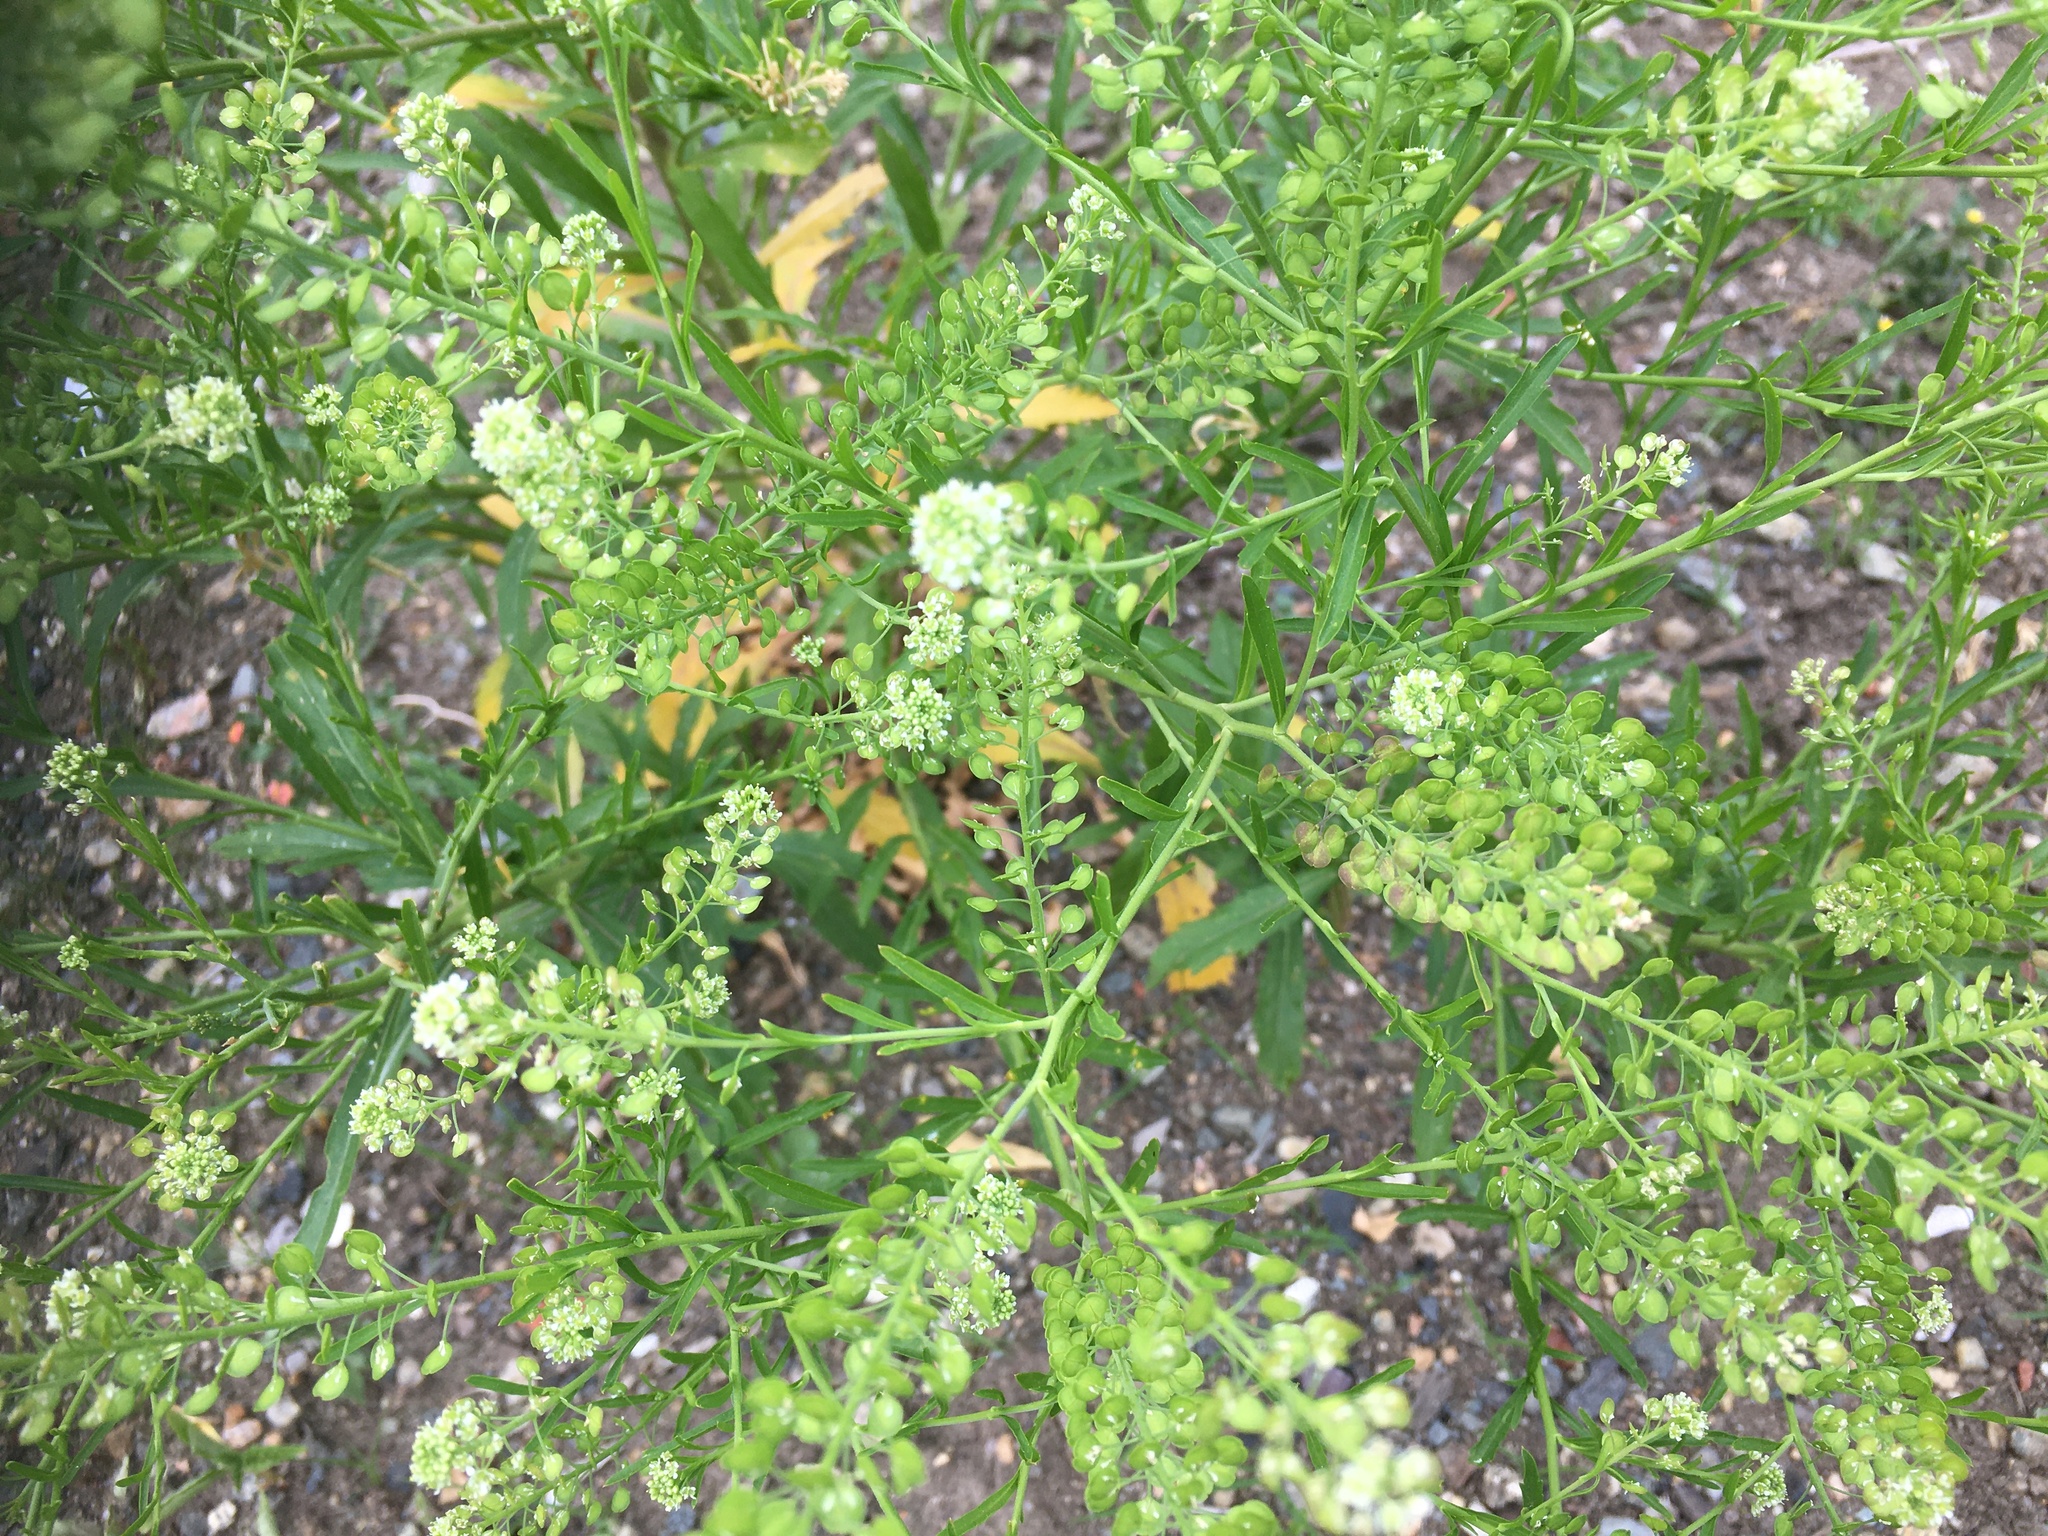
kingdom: Plantae
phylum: Tracheophyta
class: Magnoliopsida
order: Brassicales
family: Brassicaceae
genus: Lepidium
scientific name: Lepidium virginicum
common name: Least pepperwort
